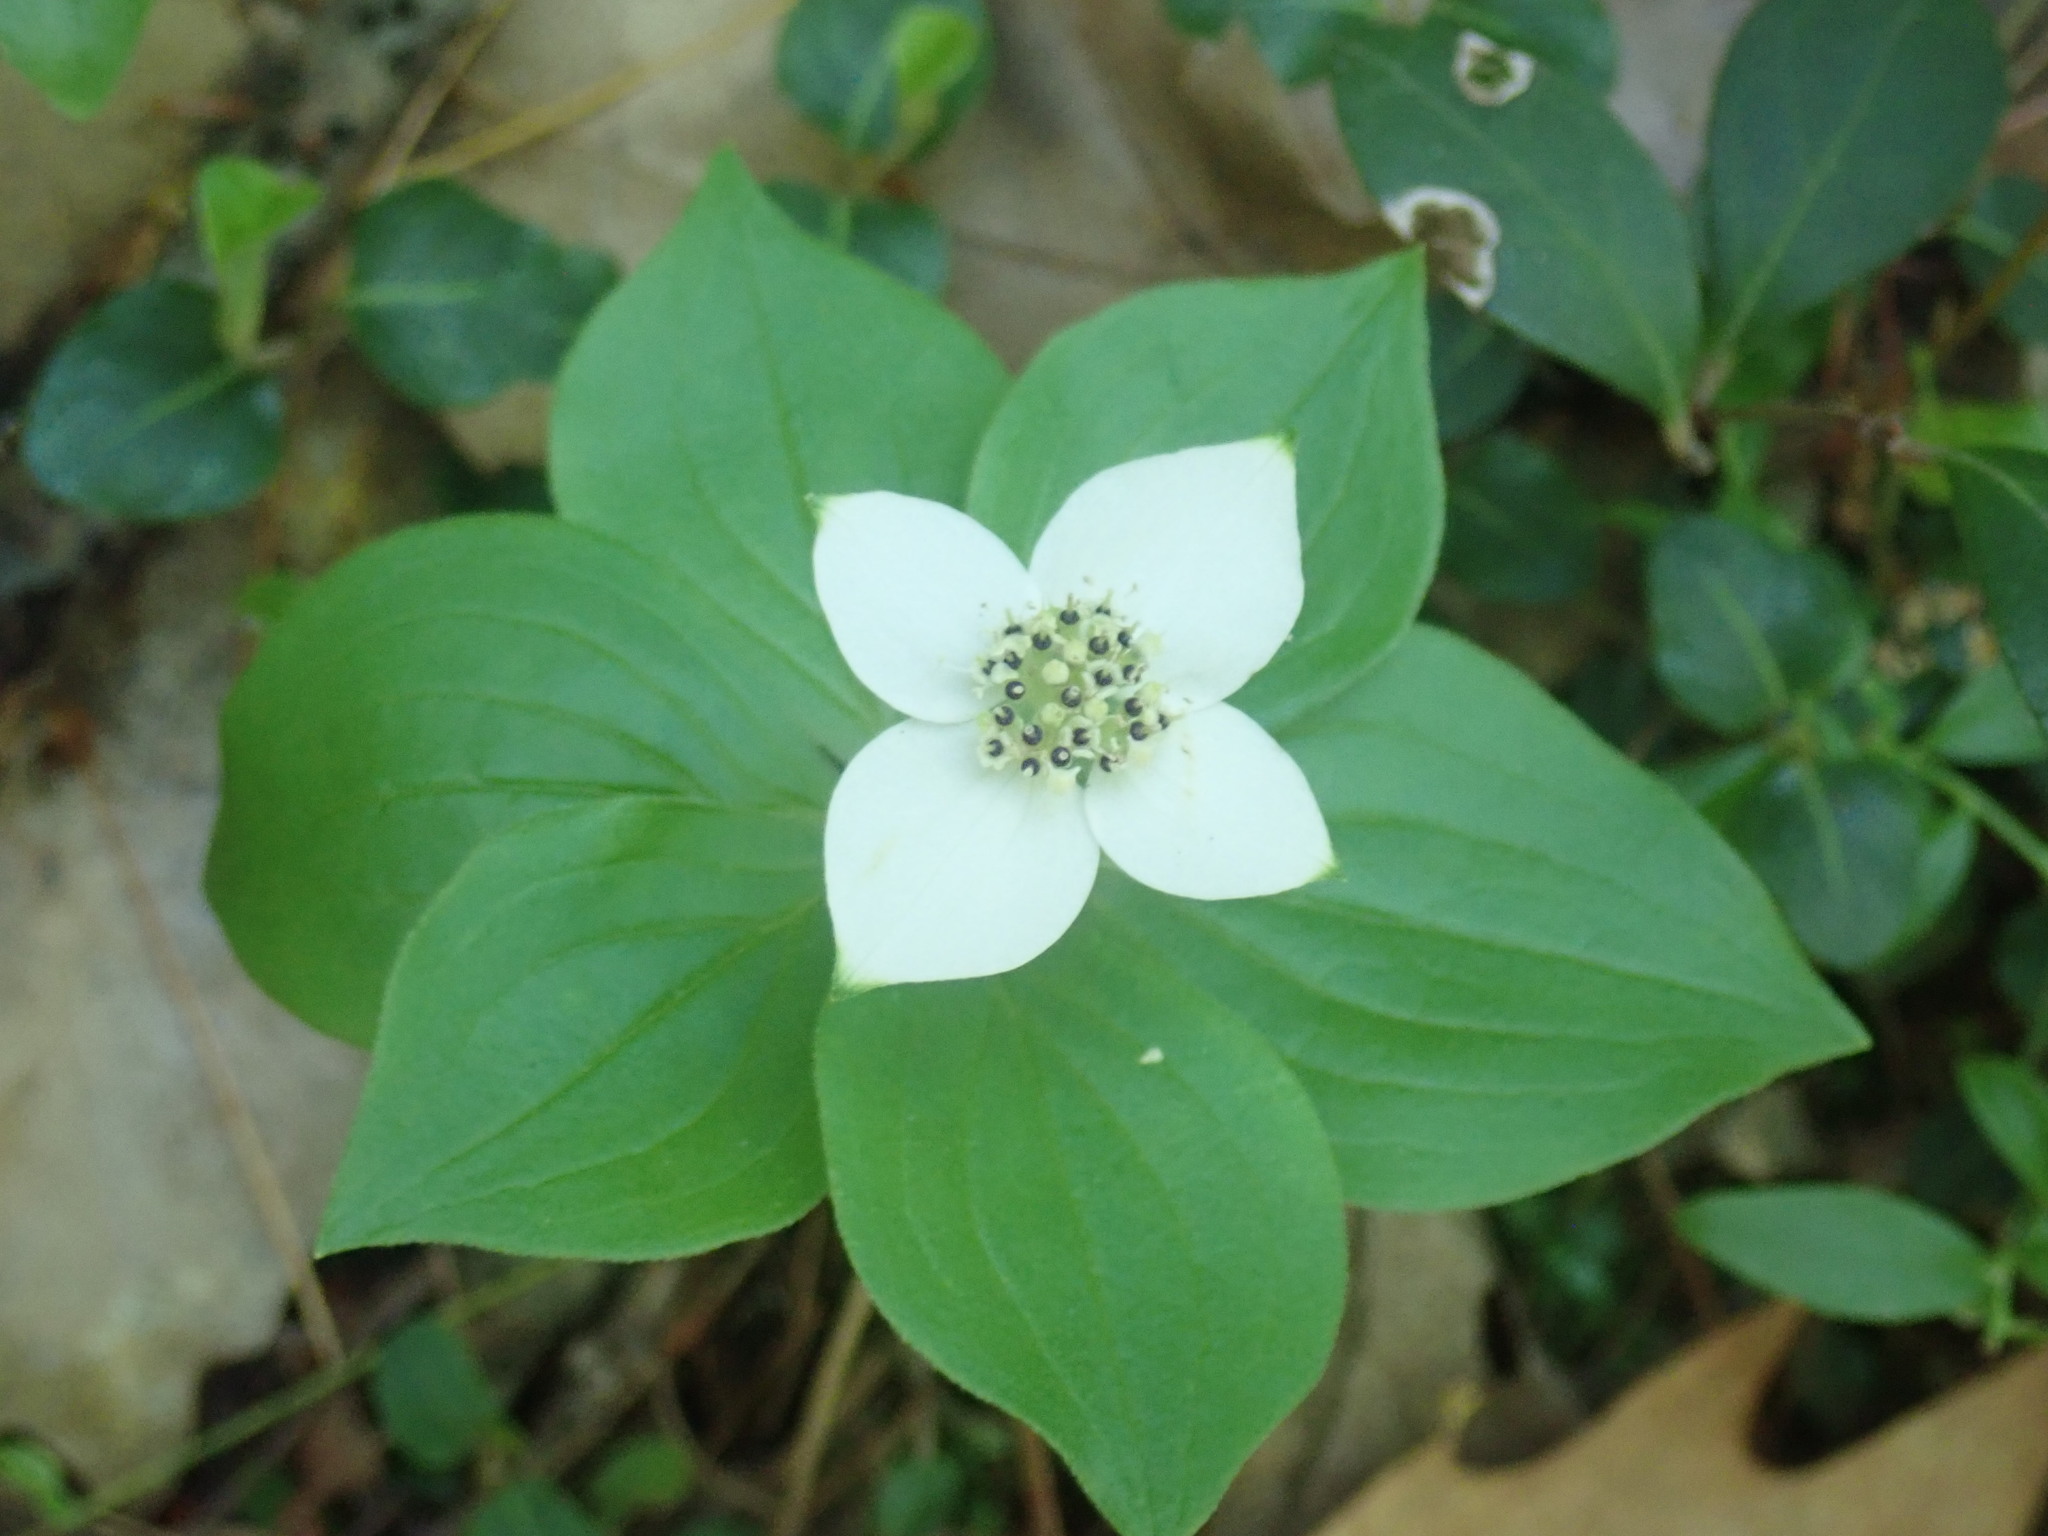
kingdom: Plantae
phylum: Tracheophyta
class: Magnoliopsida
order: Cornales
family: Cornaceae
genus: Cornus
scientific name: Cornus canadensis
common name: Creeping dogwood
